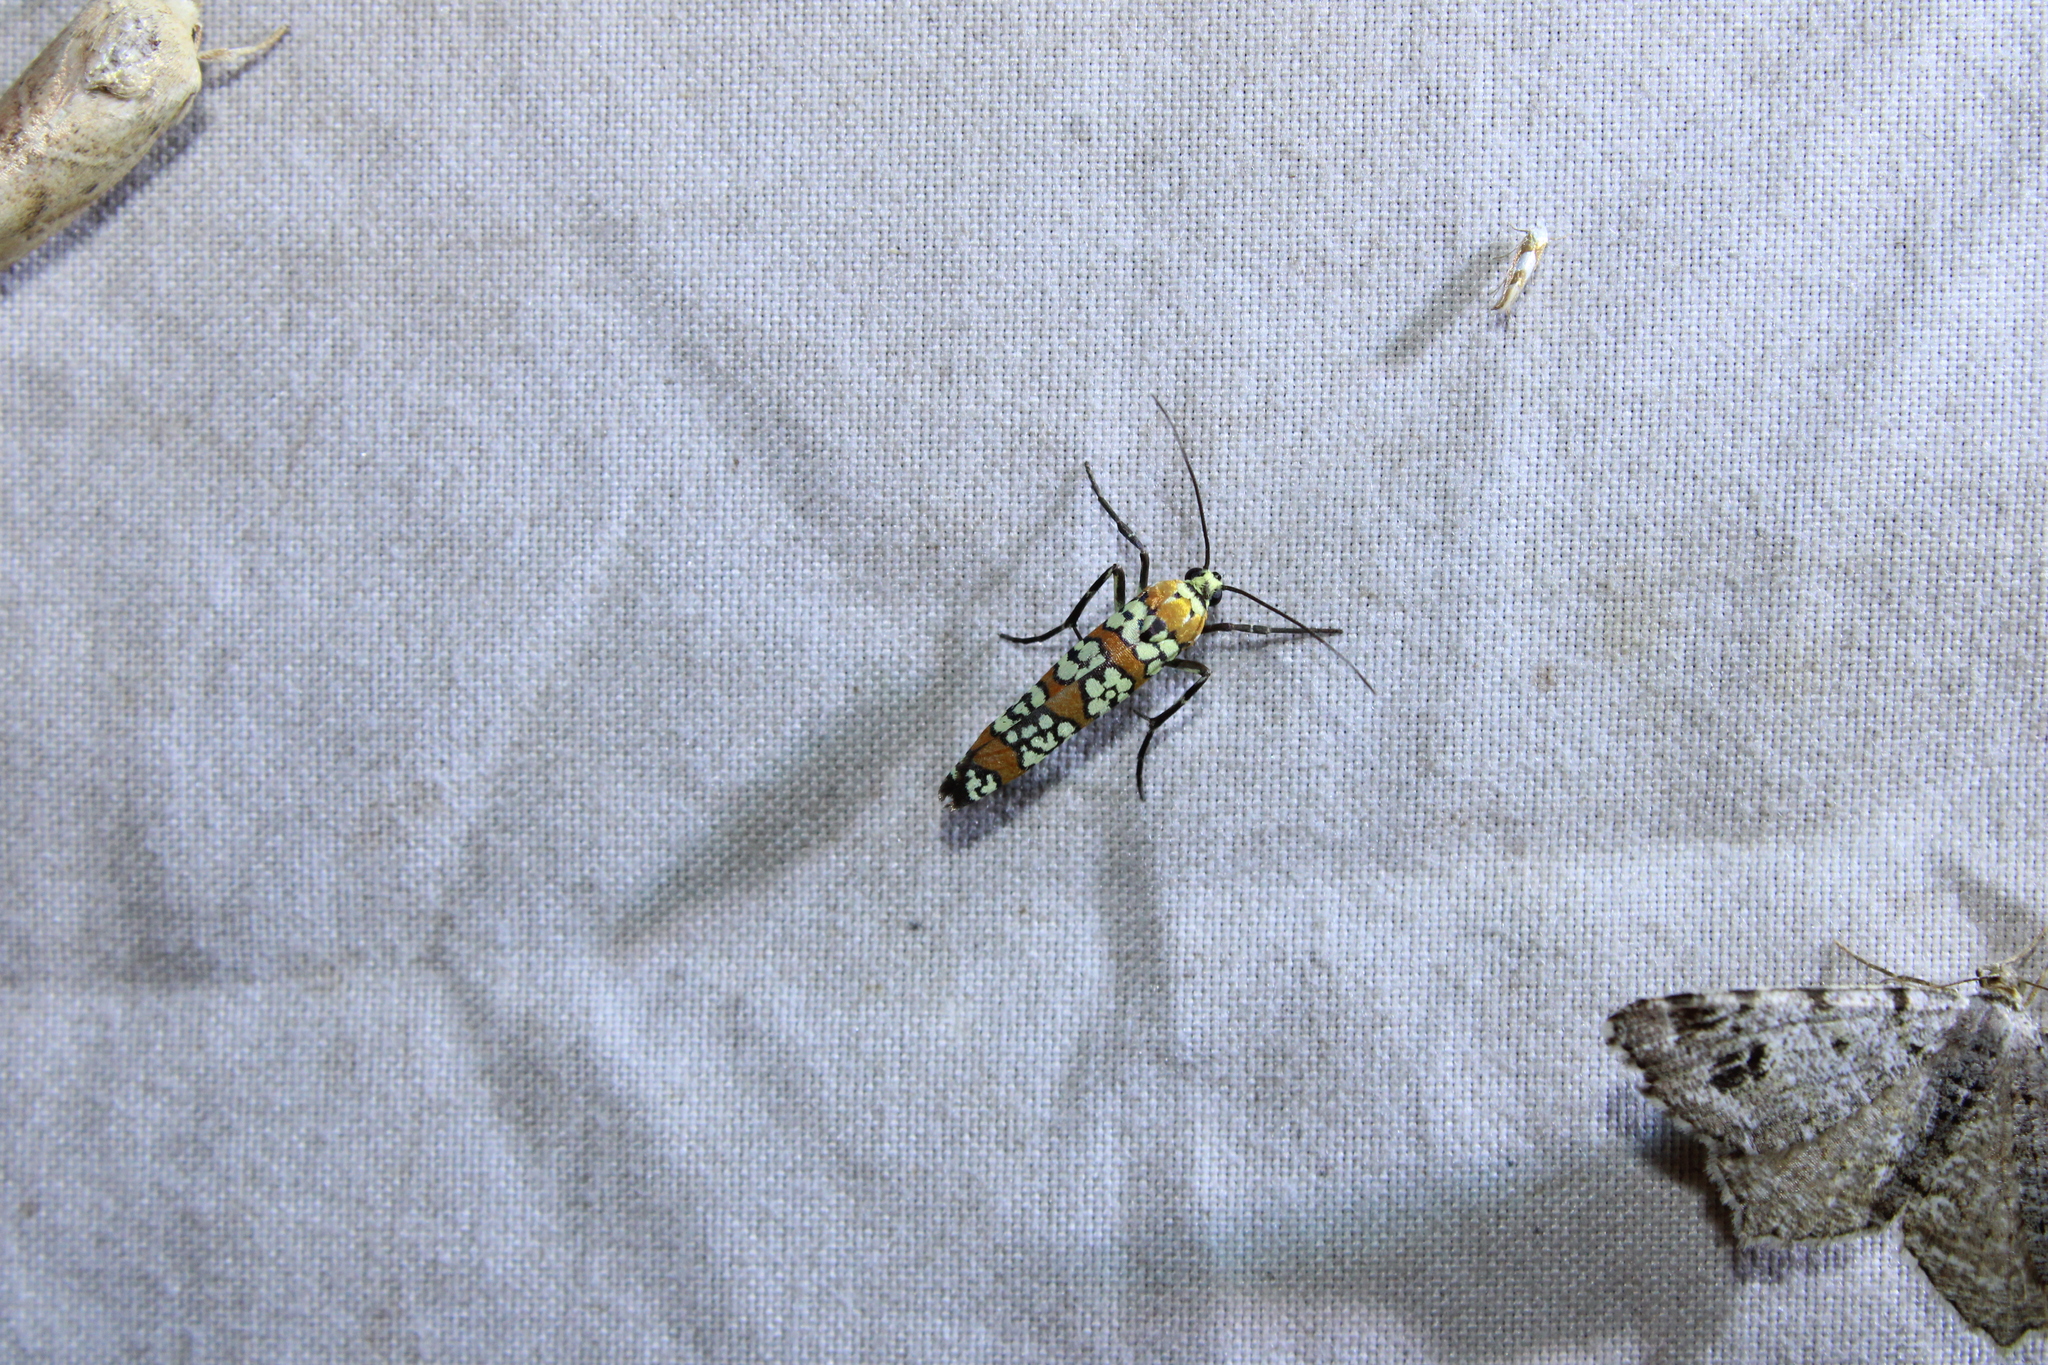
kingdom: Animalia
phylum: Arthropoda
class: Insecta
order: Lepidoptera
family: Attevidae
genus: Atteva
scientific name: Atteva punctella
